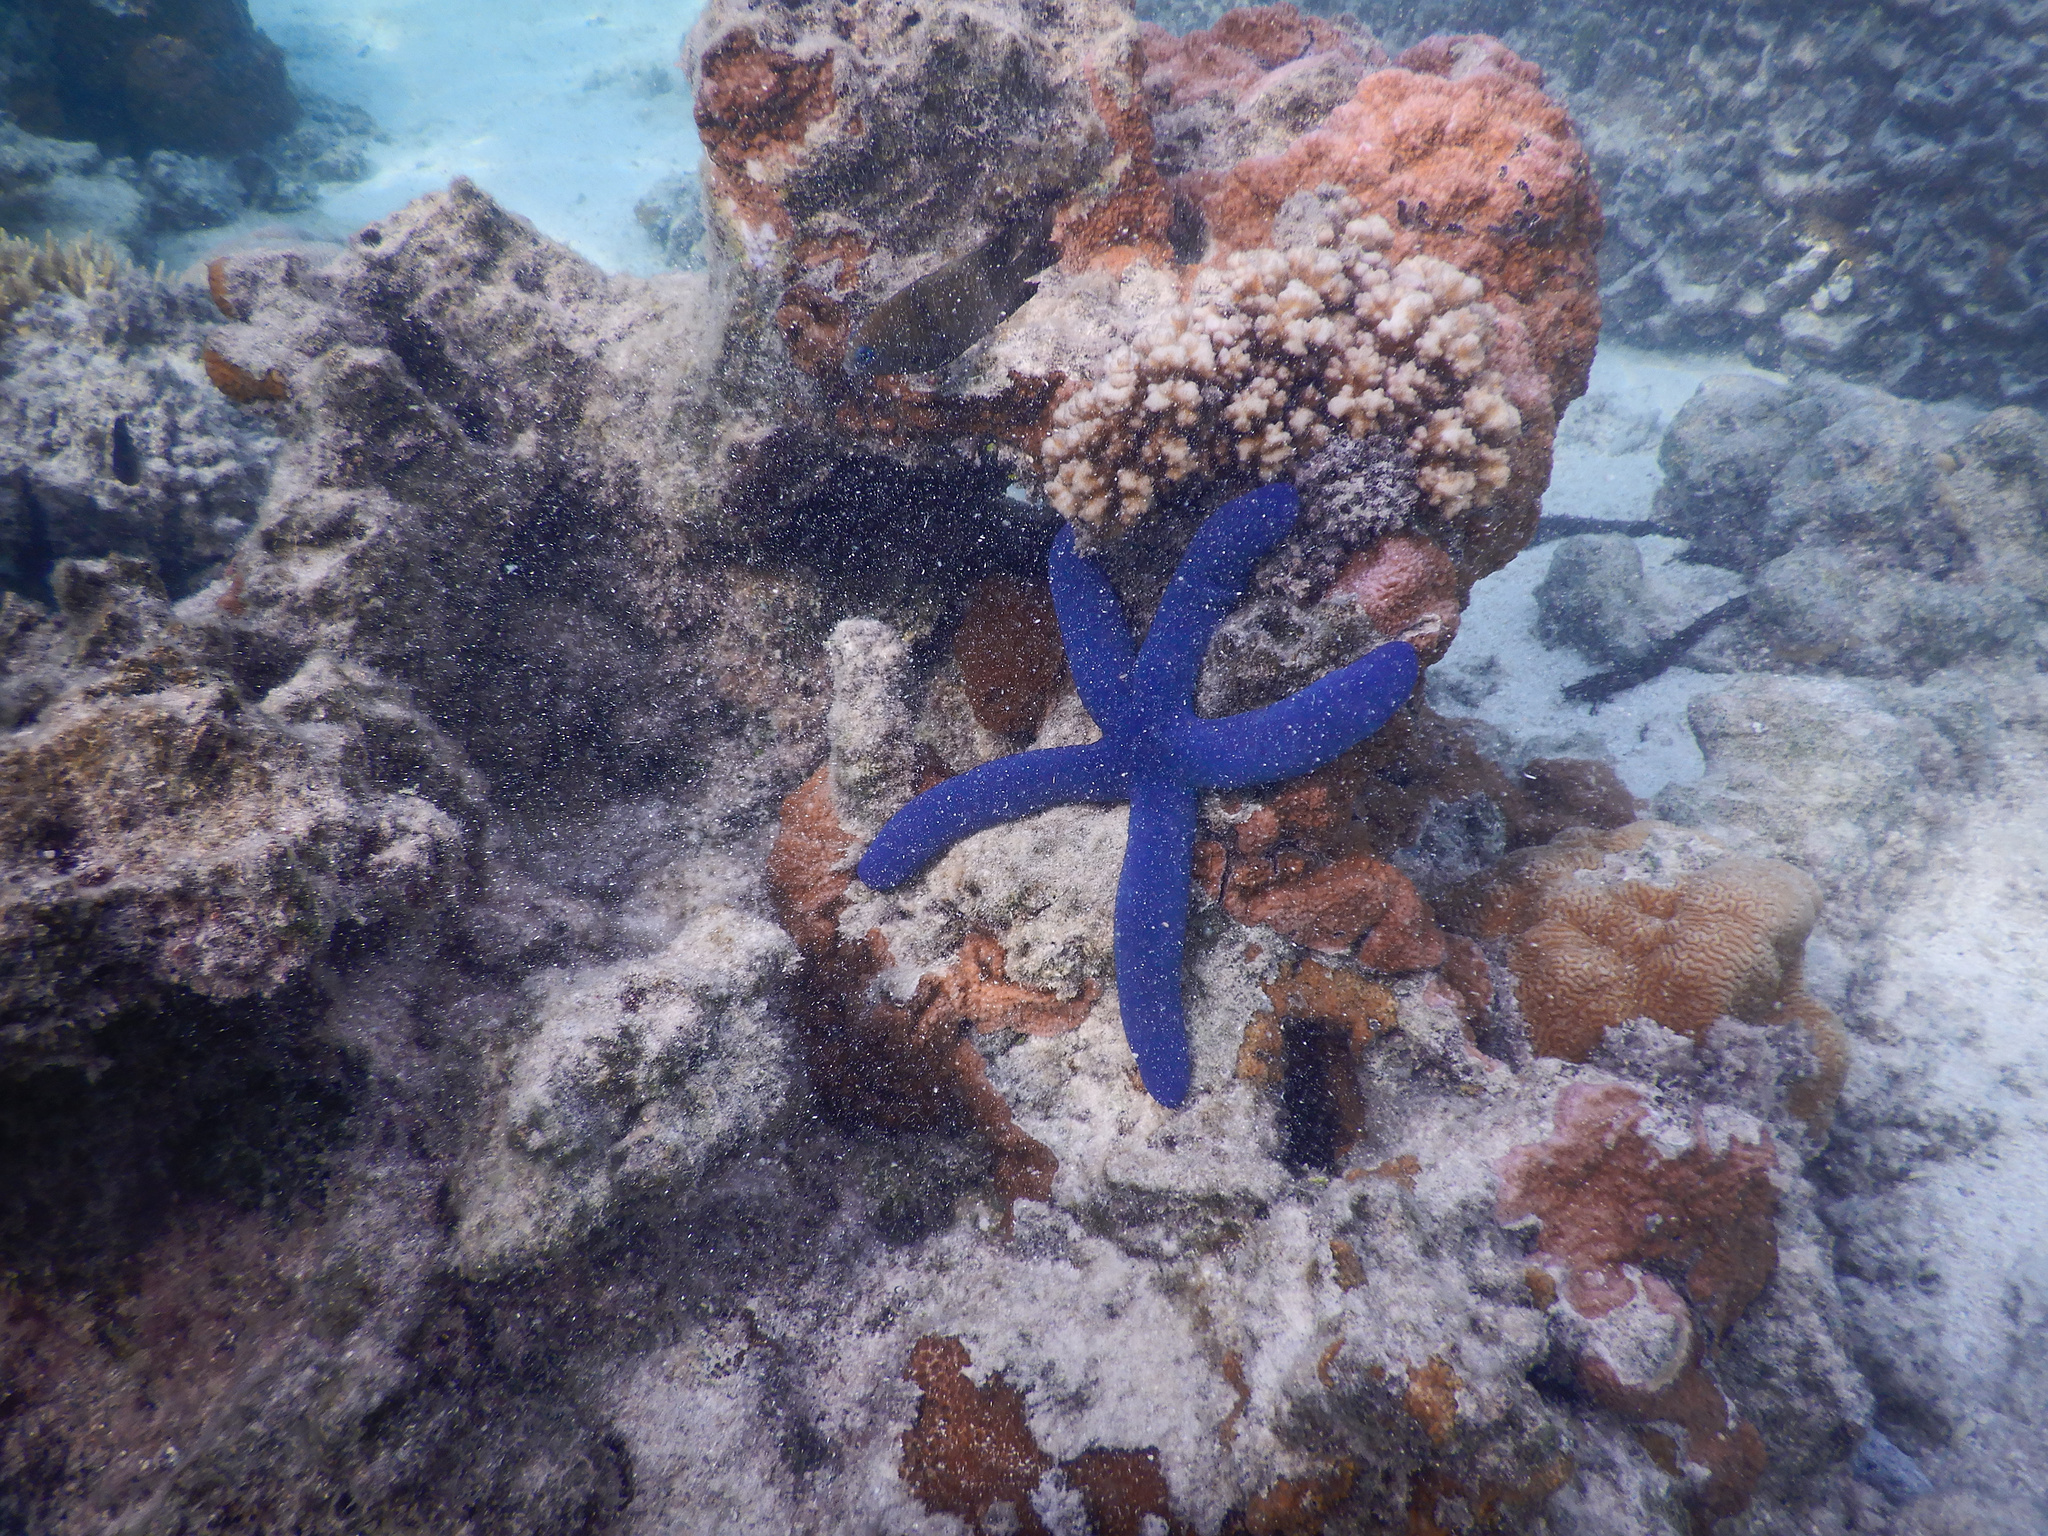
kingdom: Animalia
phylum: Echinodermata
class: Asteroidea
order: Valvatida
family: Ophidiasteridae
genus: Linckia
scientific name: Linckia laevigata
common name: Azure sea star
